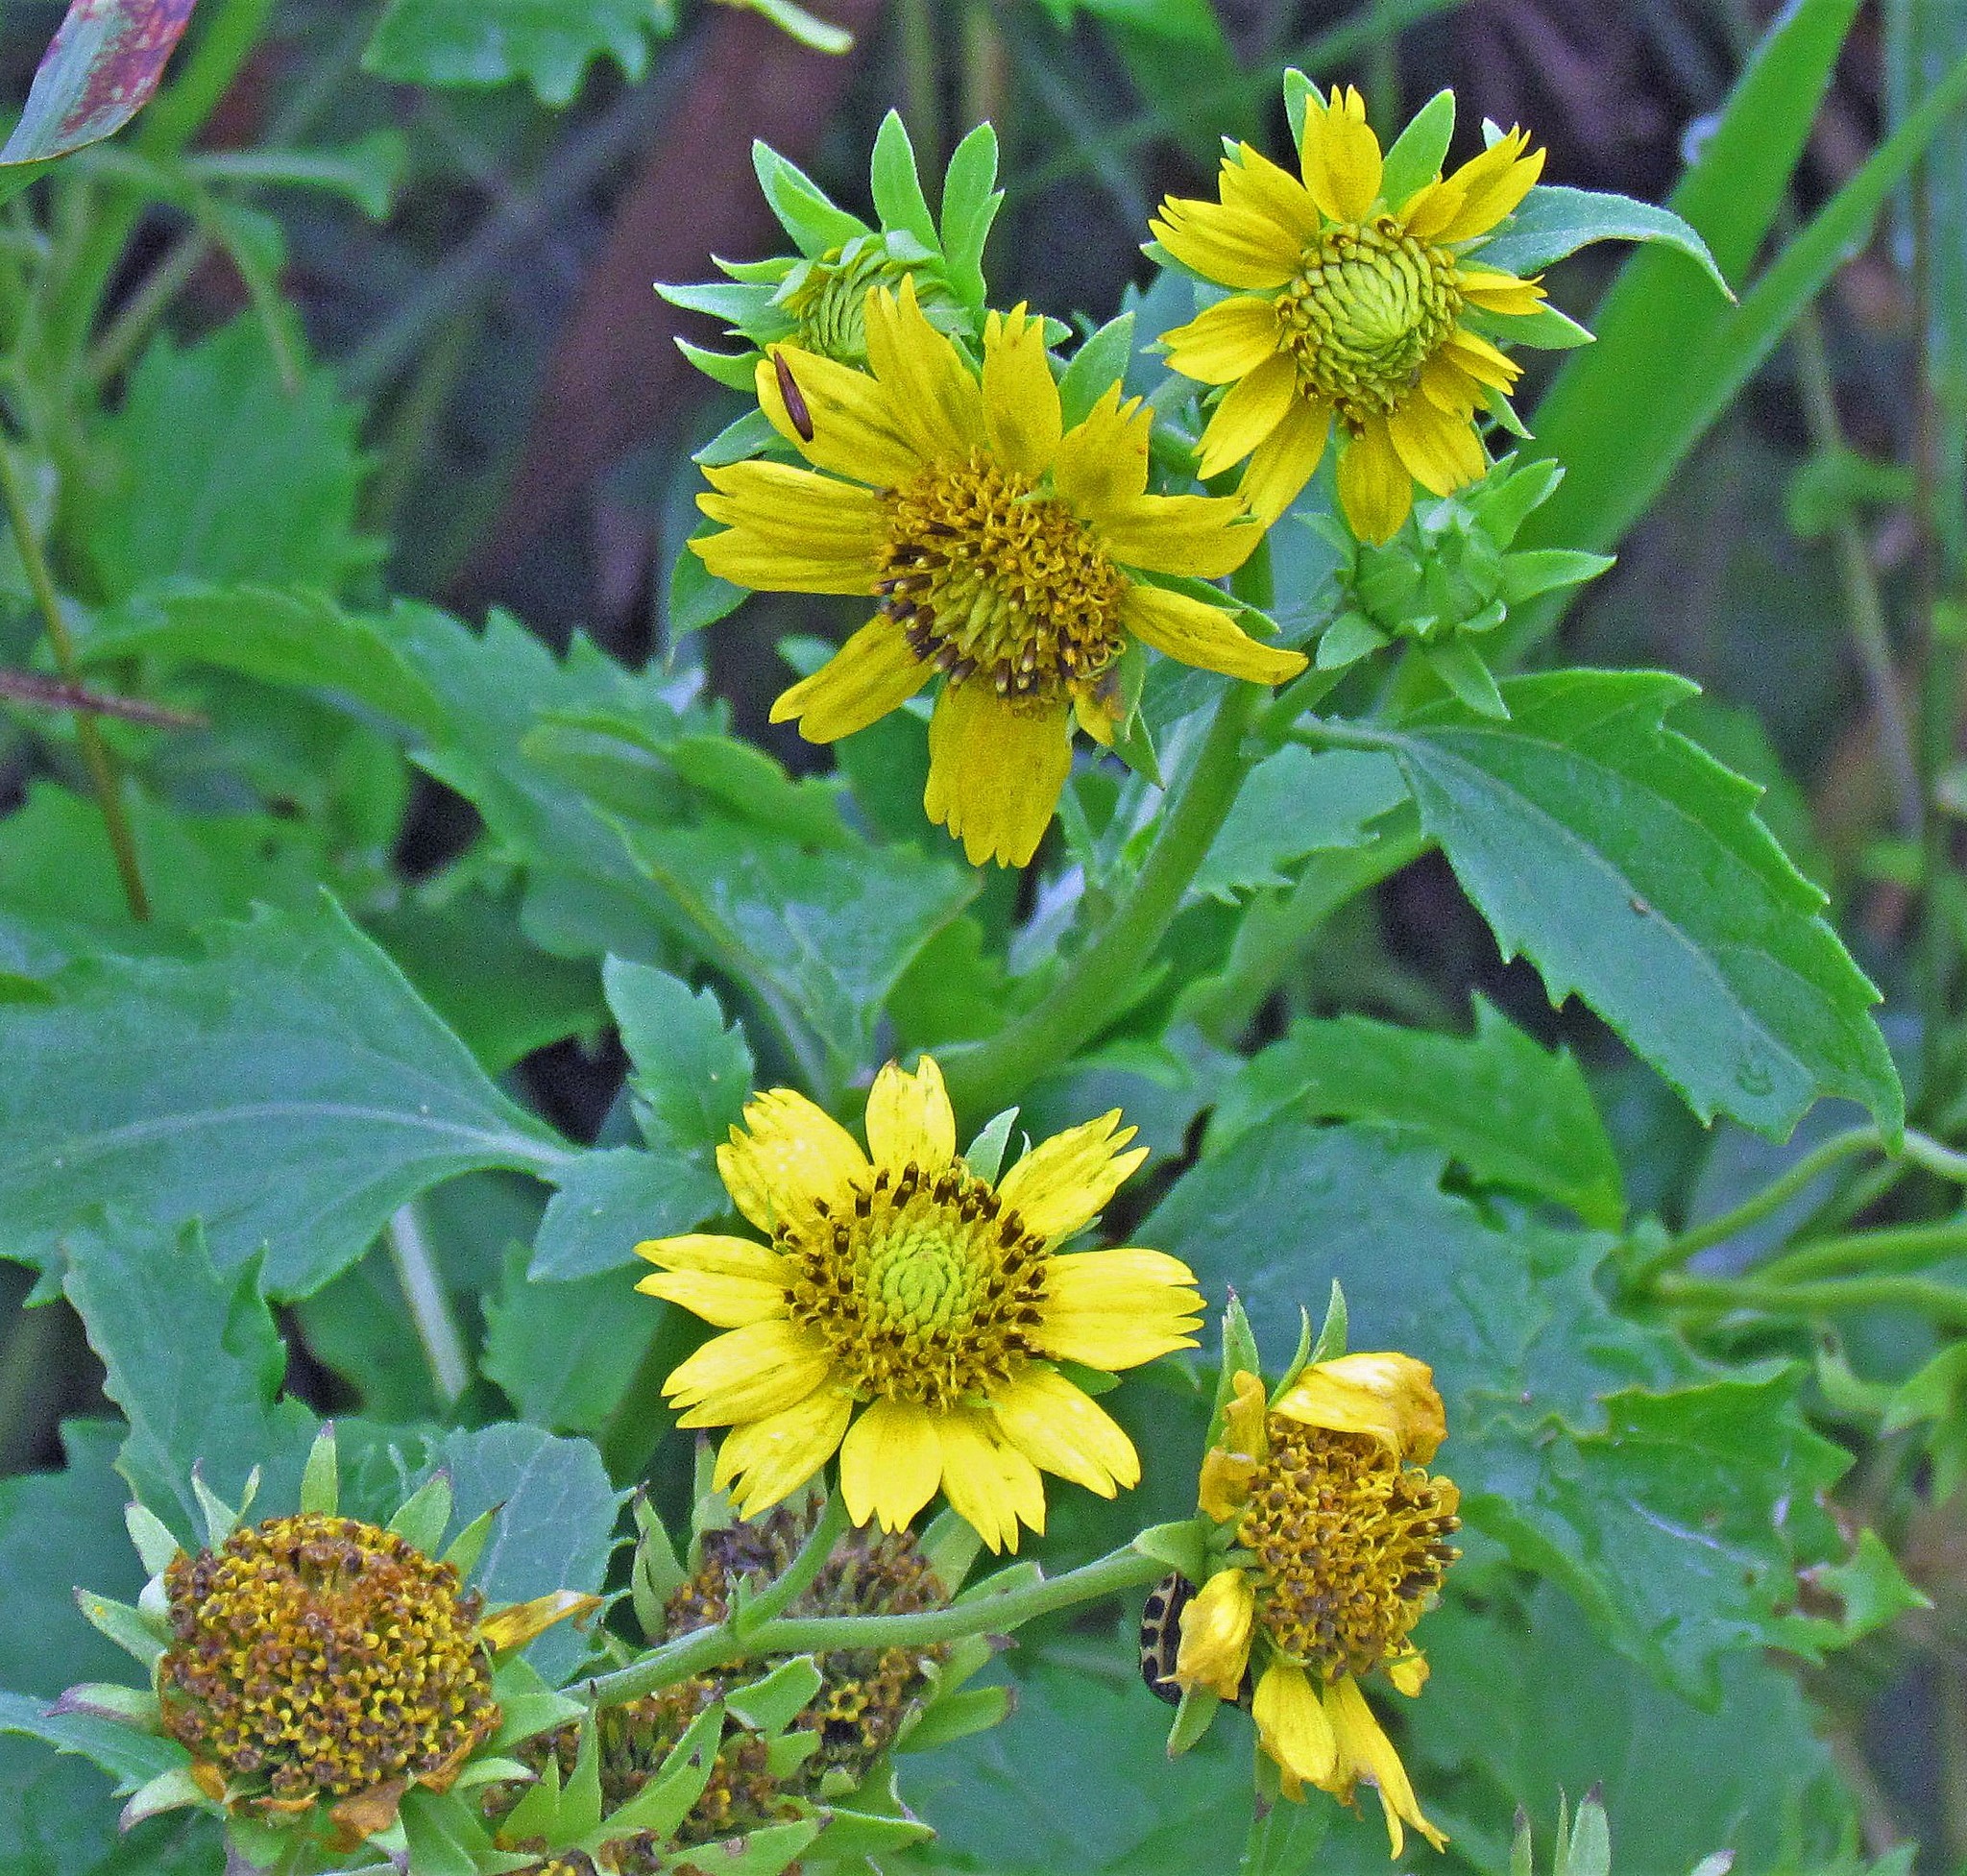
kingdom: Plantae
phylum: Tracheophyta
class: Magnoliopsida
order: Asterales
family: Asteraceae
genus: Verbesina
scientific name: Verbesina encelioides
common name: Golden crownbeard
